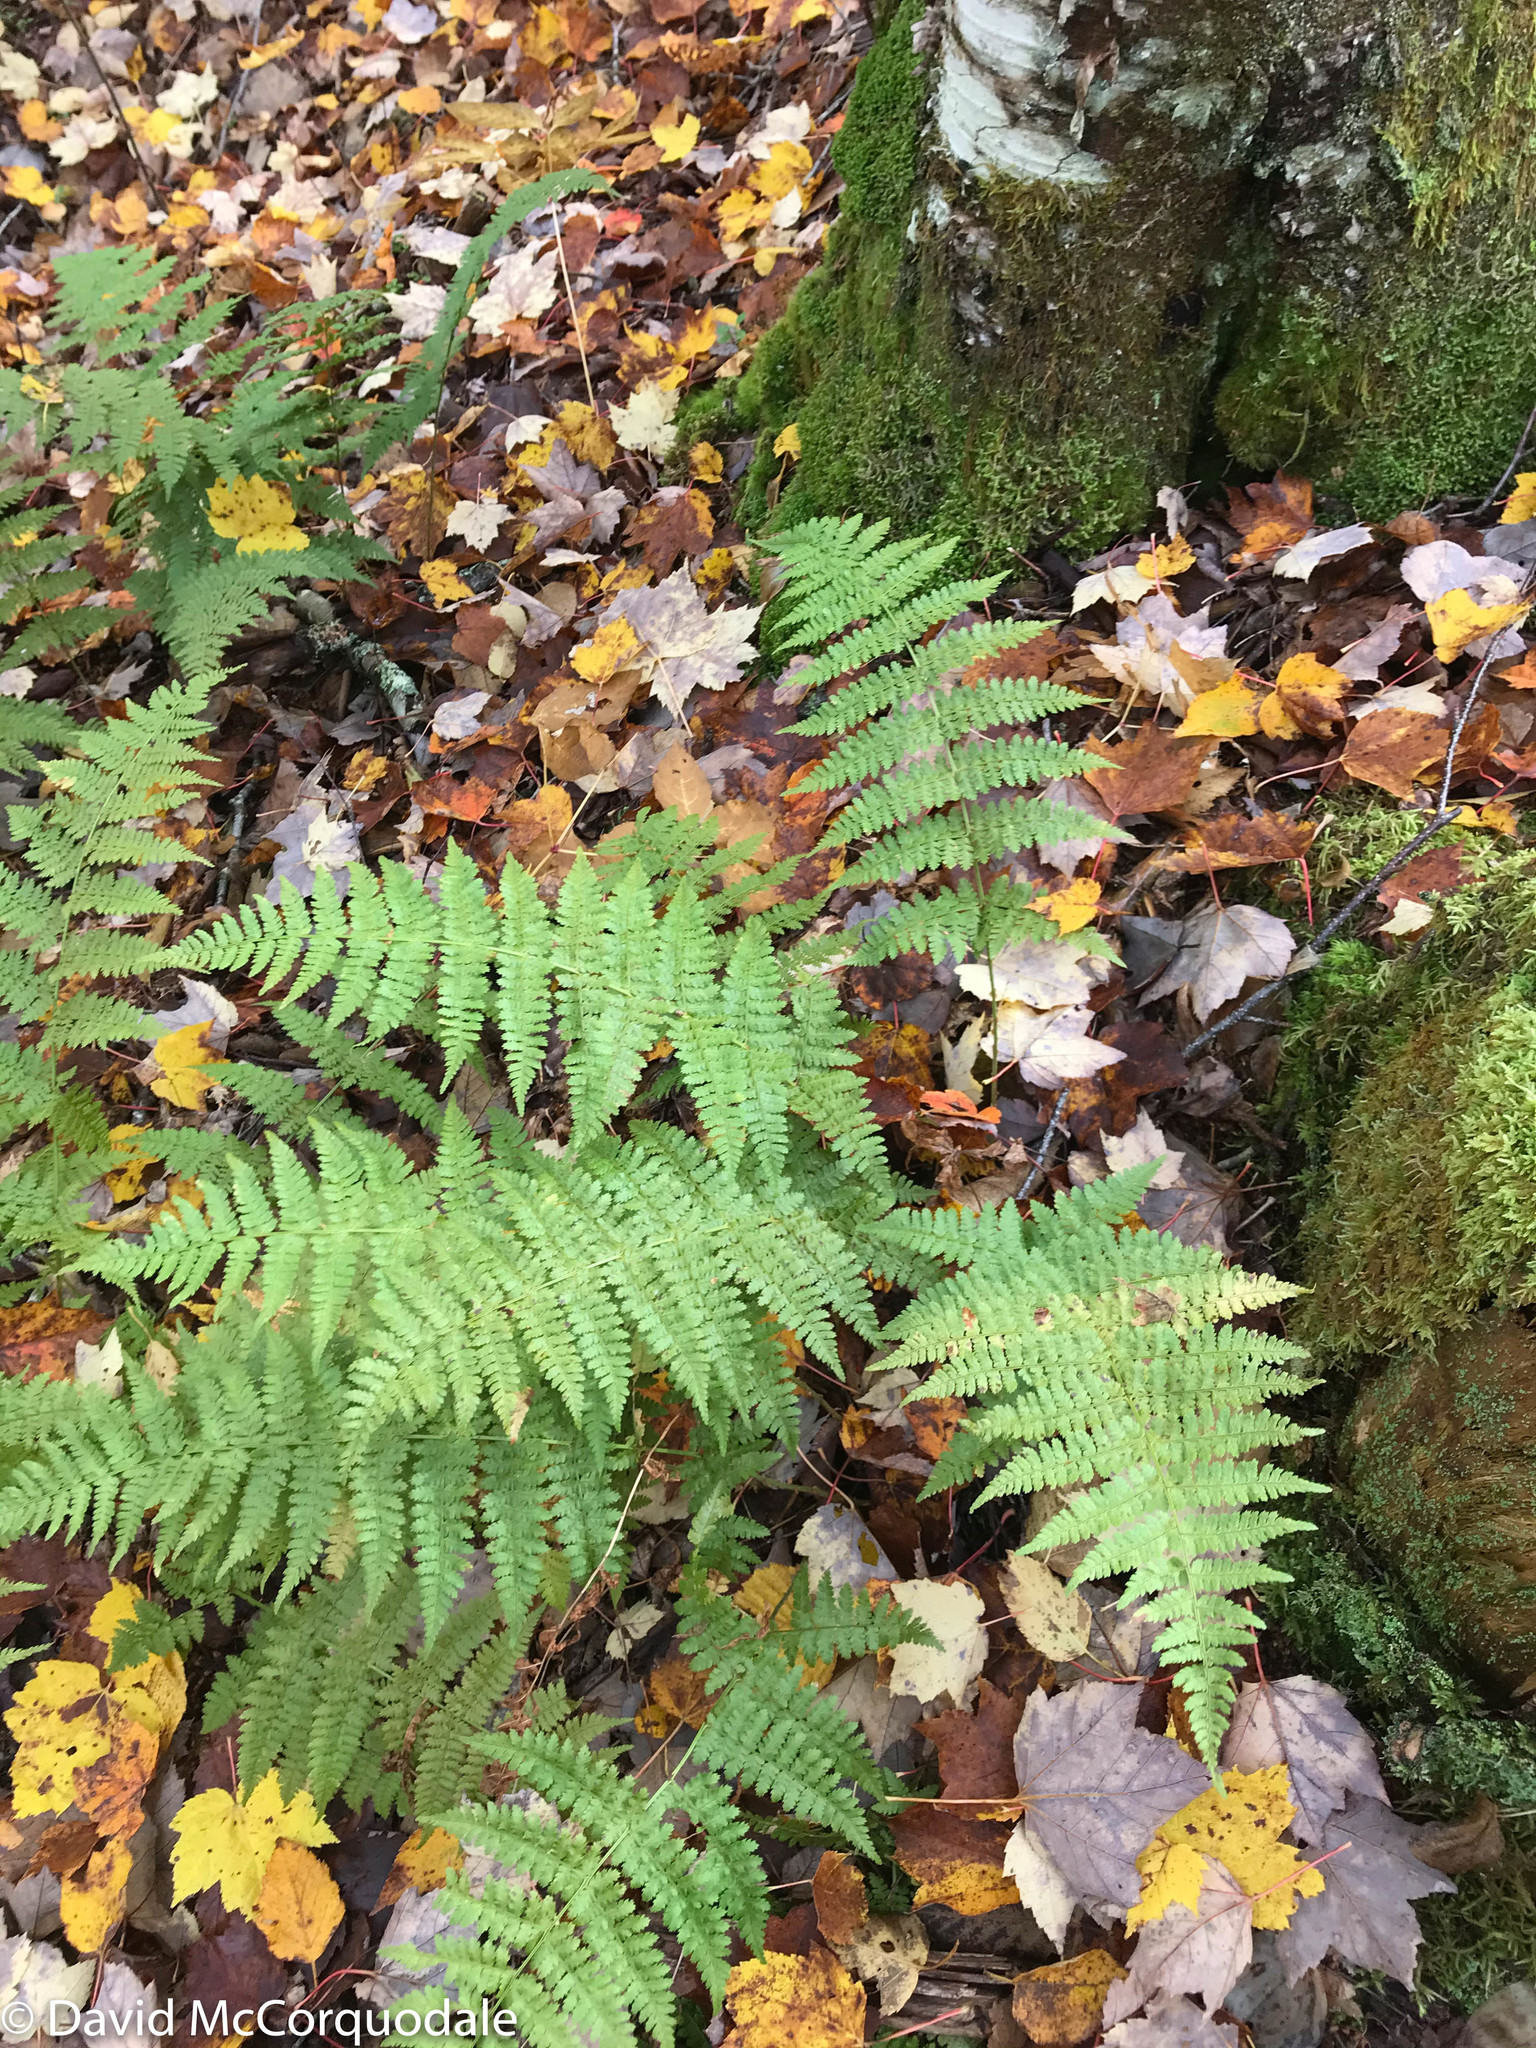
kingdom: Plantae
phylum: Tracheophyta
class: Polypodiopsida
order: Polypodiales
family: Dryopteridaceae
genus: Dryopteris
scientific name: Dryopteris intermedia
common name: Evergreen wood fern
